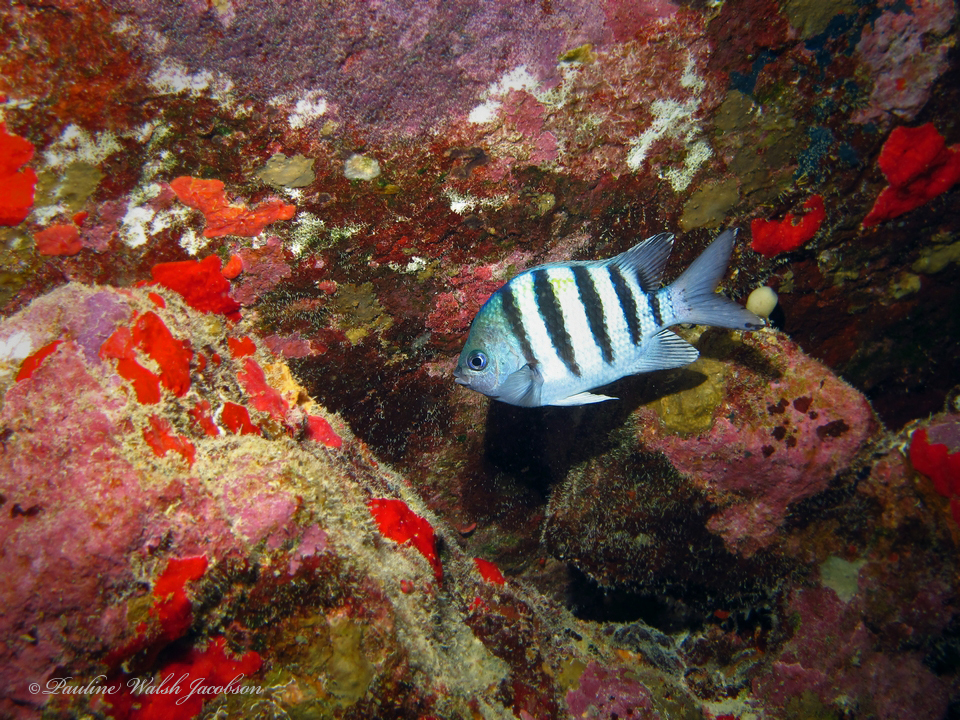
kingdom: Animalia
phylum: Chordata
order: Perciformes
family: Pomacentridae
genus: Abudefduf
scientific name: Abudefduf saxatilis
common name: Sergeant major
